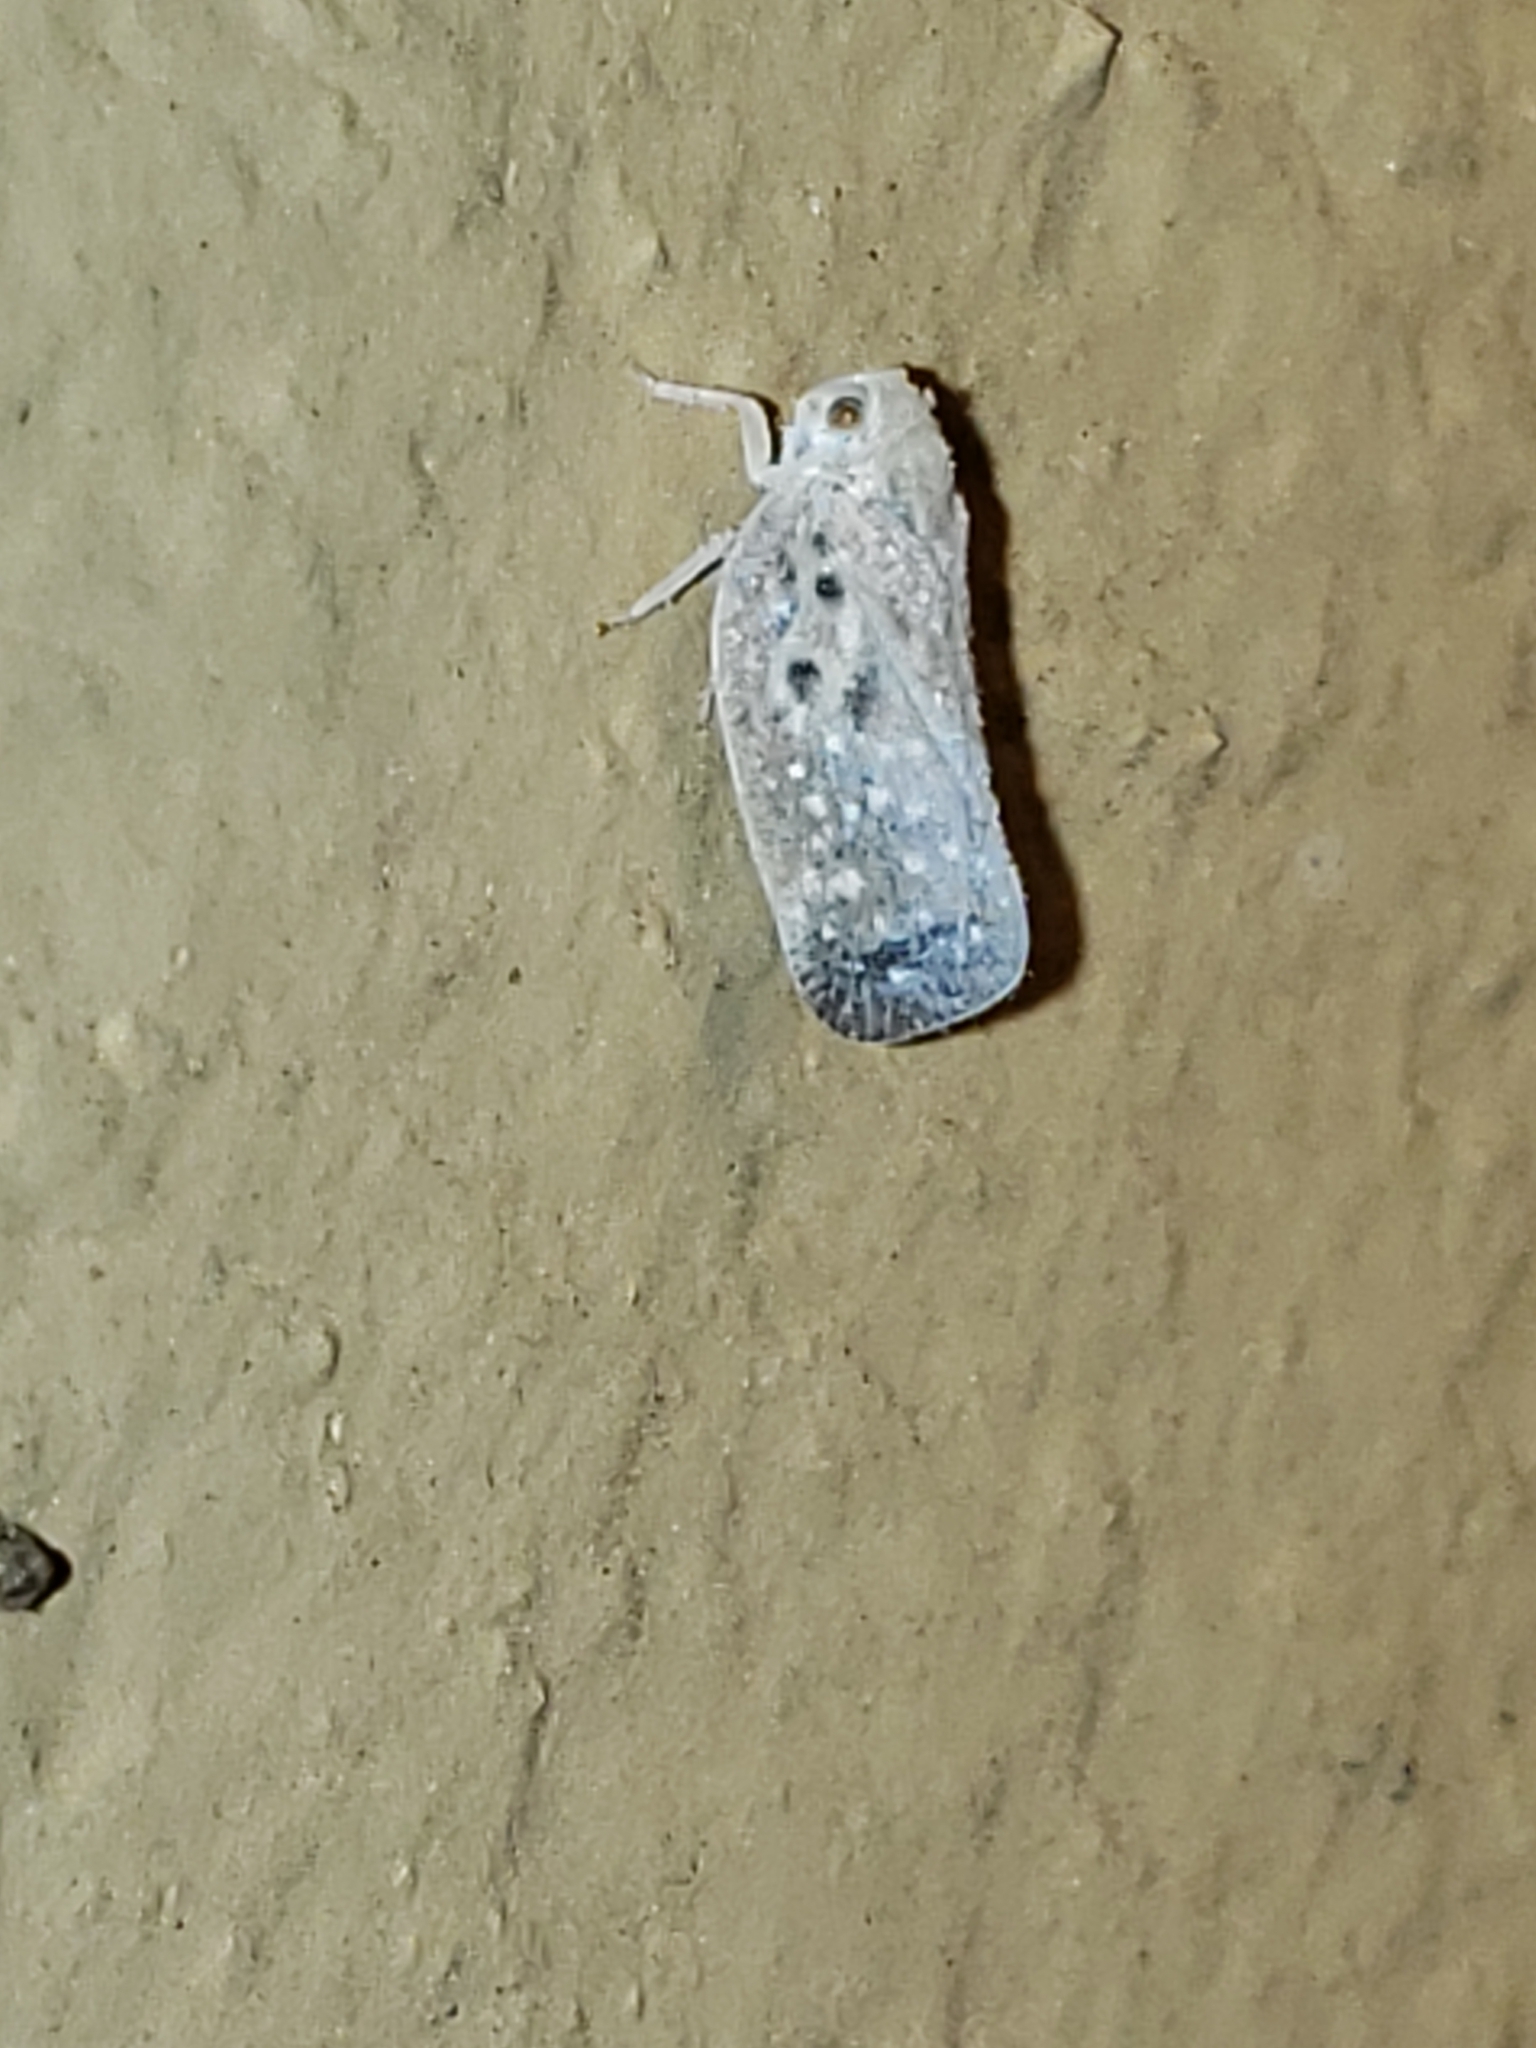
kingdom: Animalia
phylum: Arthropoda
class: Insecta
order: Hemiptera
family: Flatidae
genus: Metcalfa
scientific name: Metcalfa pruinosa
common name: Citrus flatid planthopper
